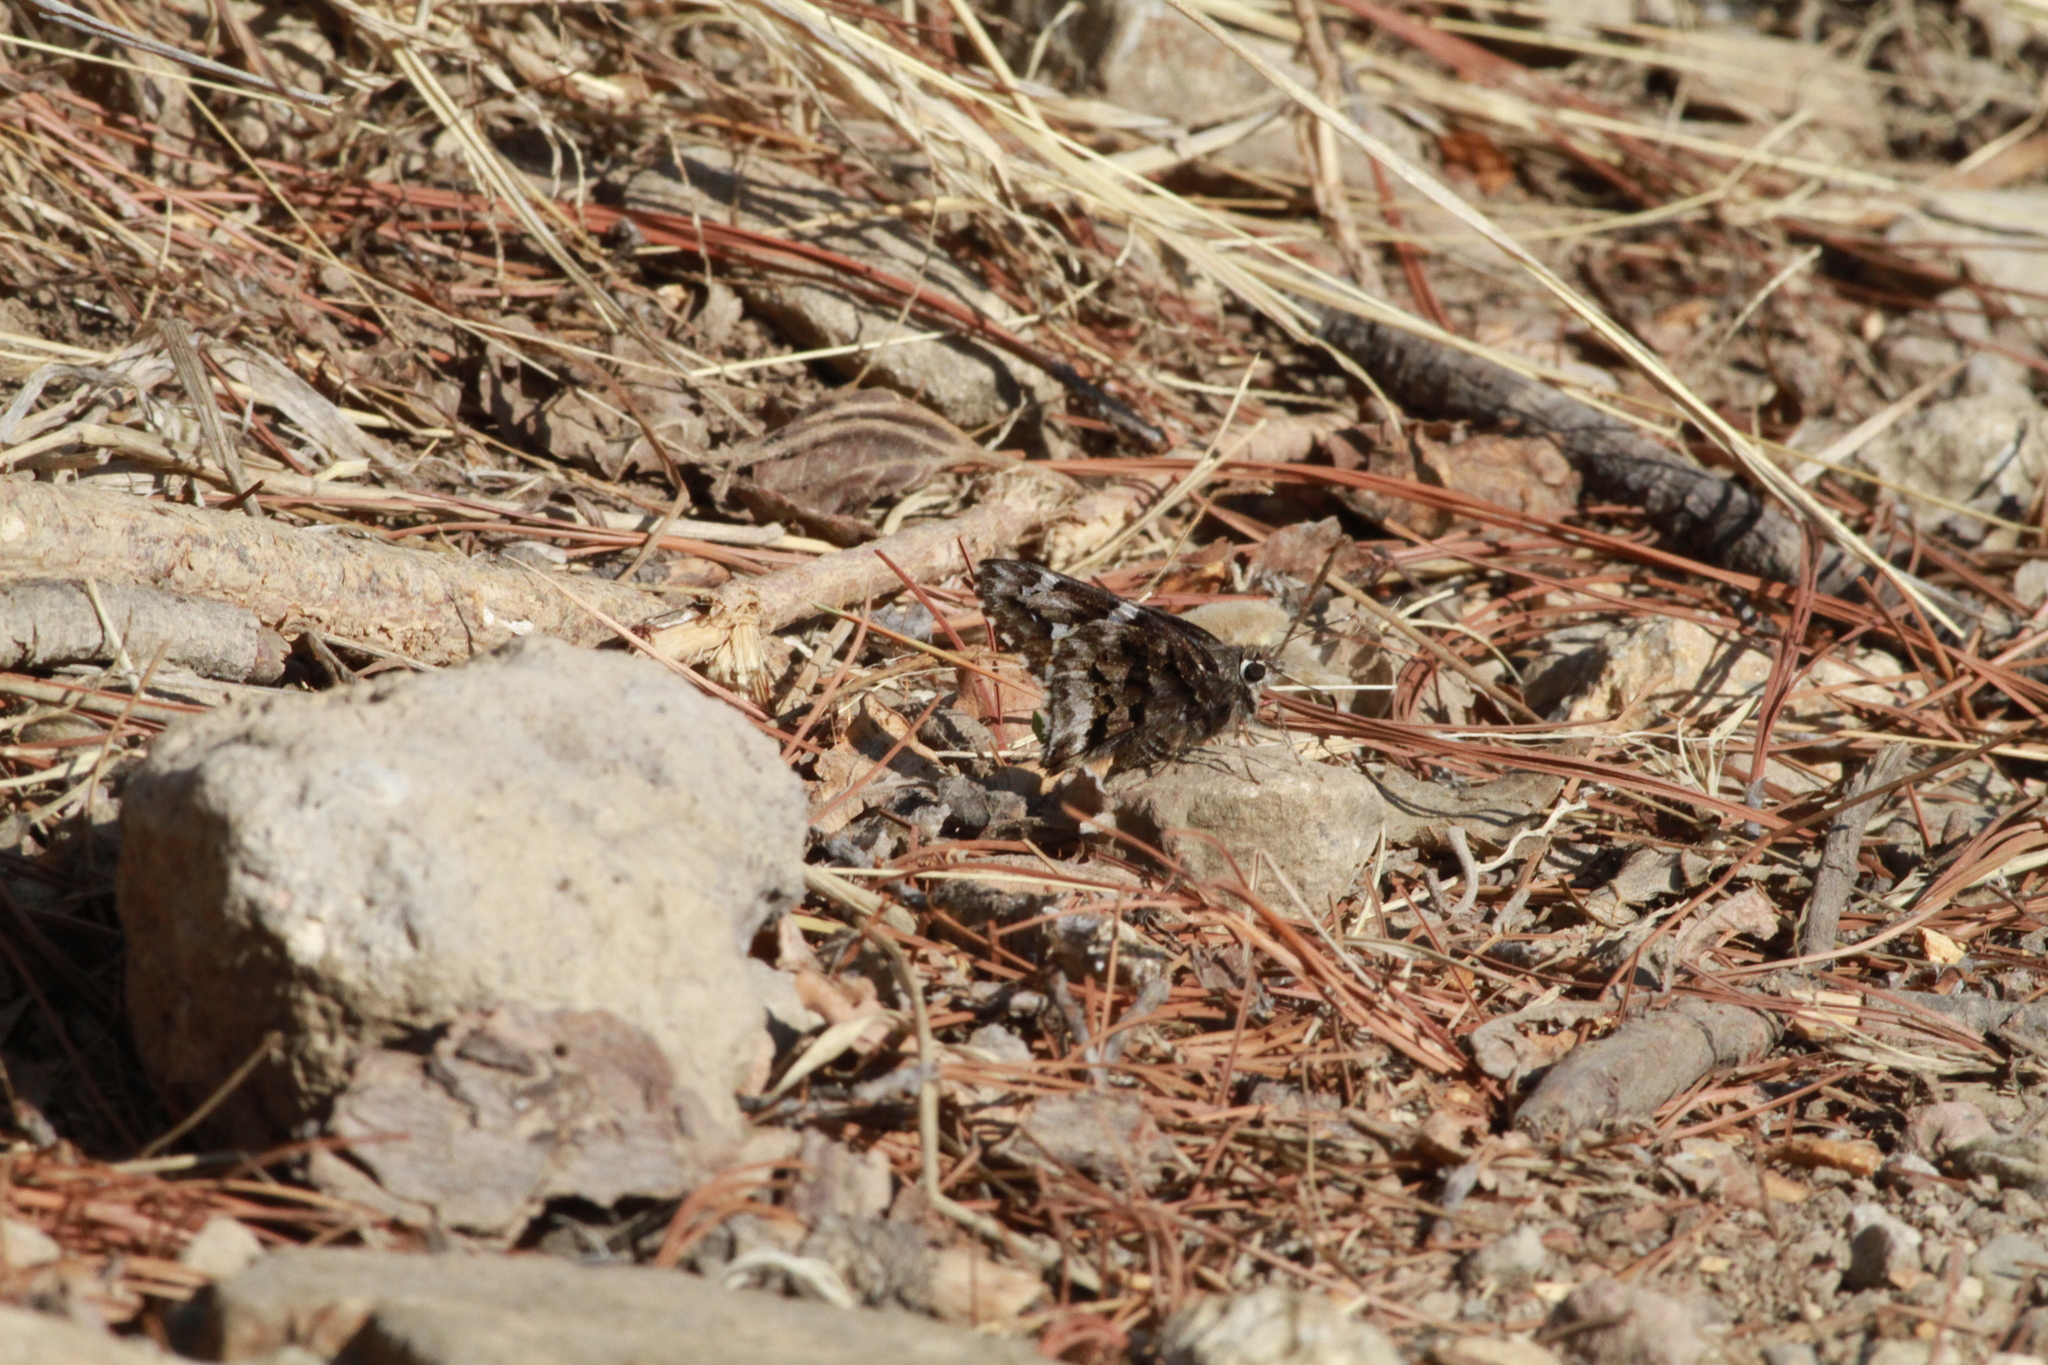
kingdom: Animalia
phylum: Arthropoda
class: Insecta
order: Lepidoptera
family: Hesperiidae
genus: Codatractus
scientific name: Codatractus arizonensis
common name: Arizona skipper
